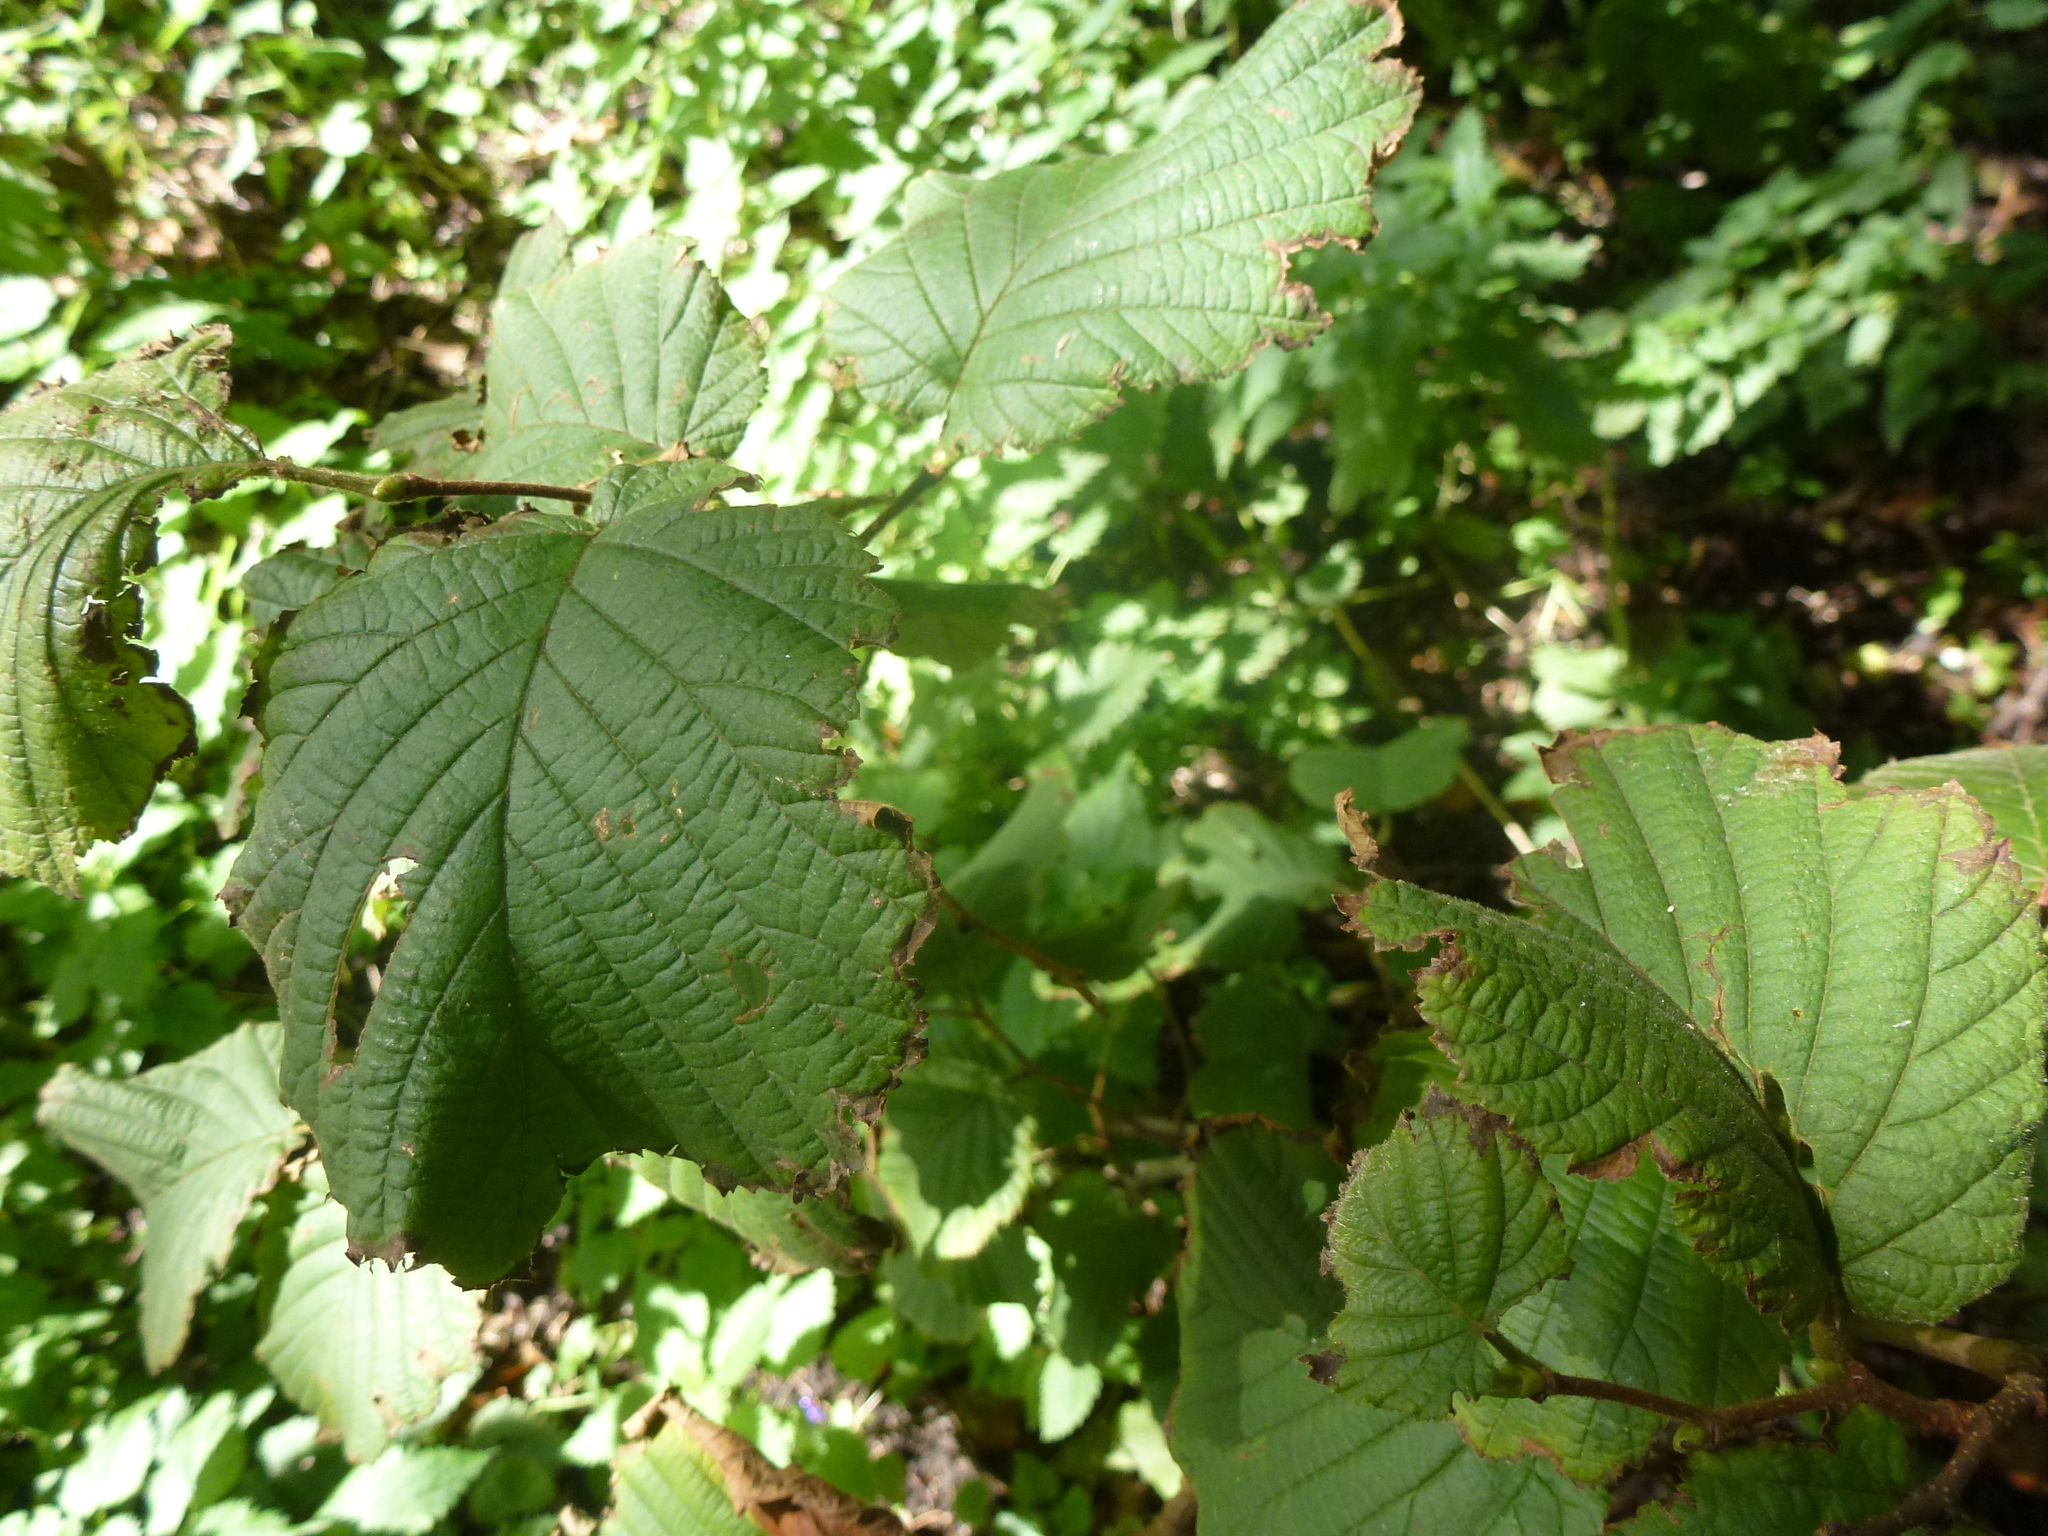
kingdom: Plantae
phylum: Tracheophyta
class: Magnoliopsida
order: Fagales
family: Betulaceae
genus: Corylus
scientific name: Corylus avellana
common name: European hazel
